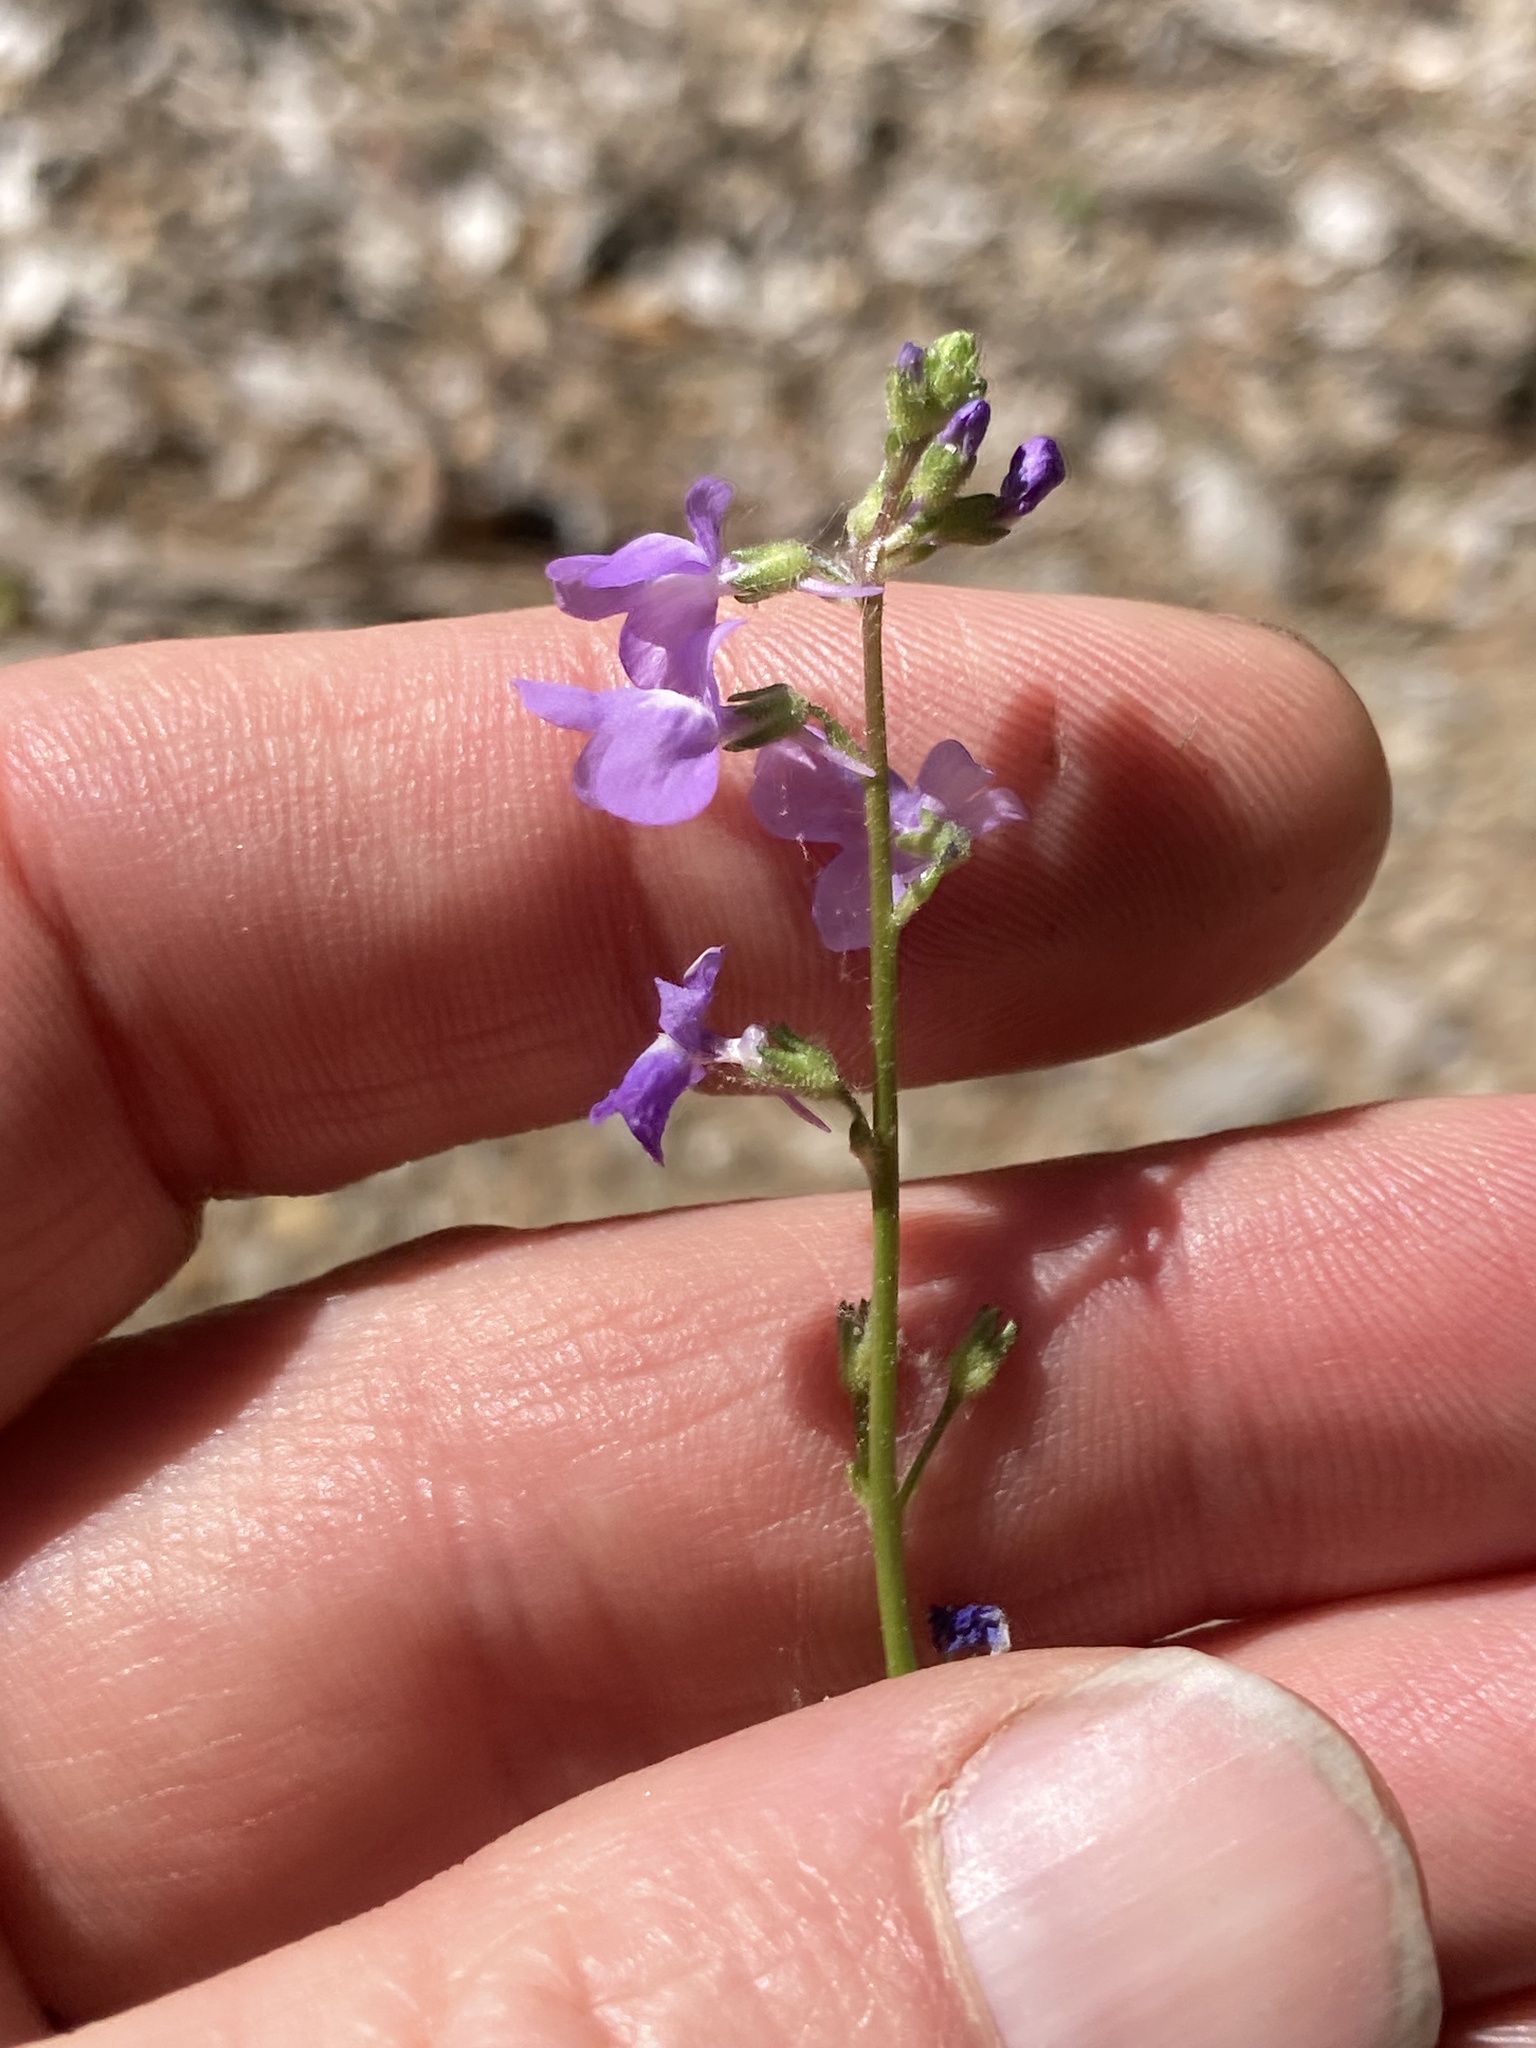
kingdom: Plantae
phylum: Tracheophyta
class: Magnoliopsida
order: Lamiales
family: Plantaginaceae
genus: Nuttallanthus
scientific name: Nuttallanthus canadensis
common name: Blue toadflax
